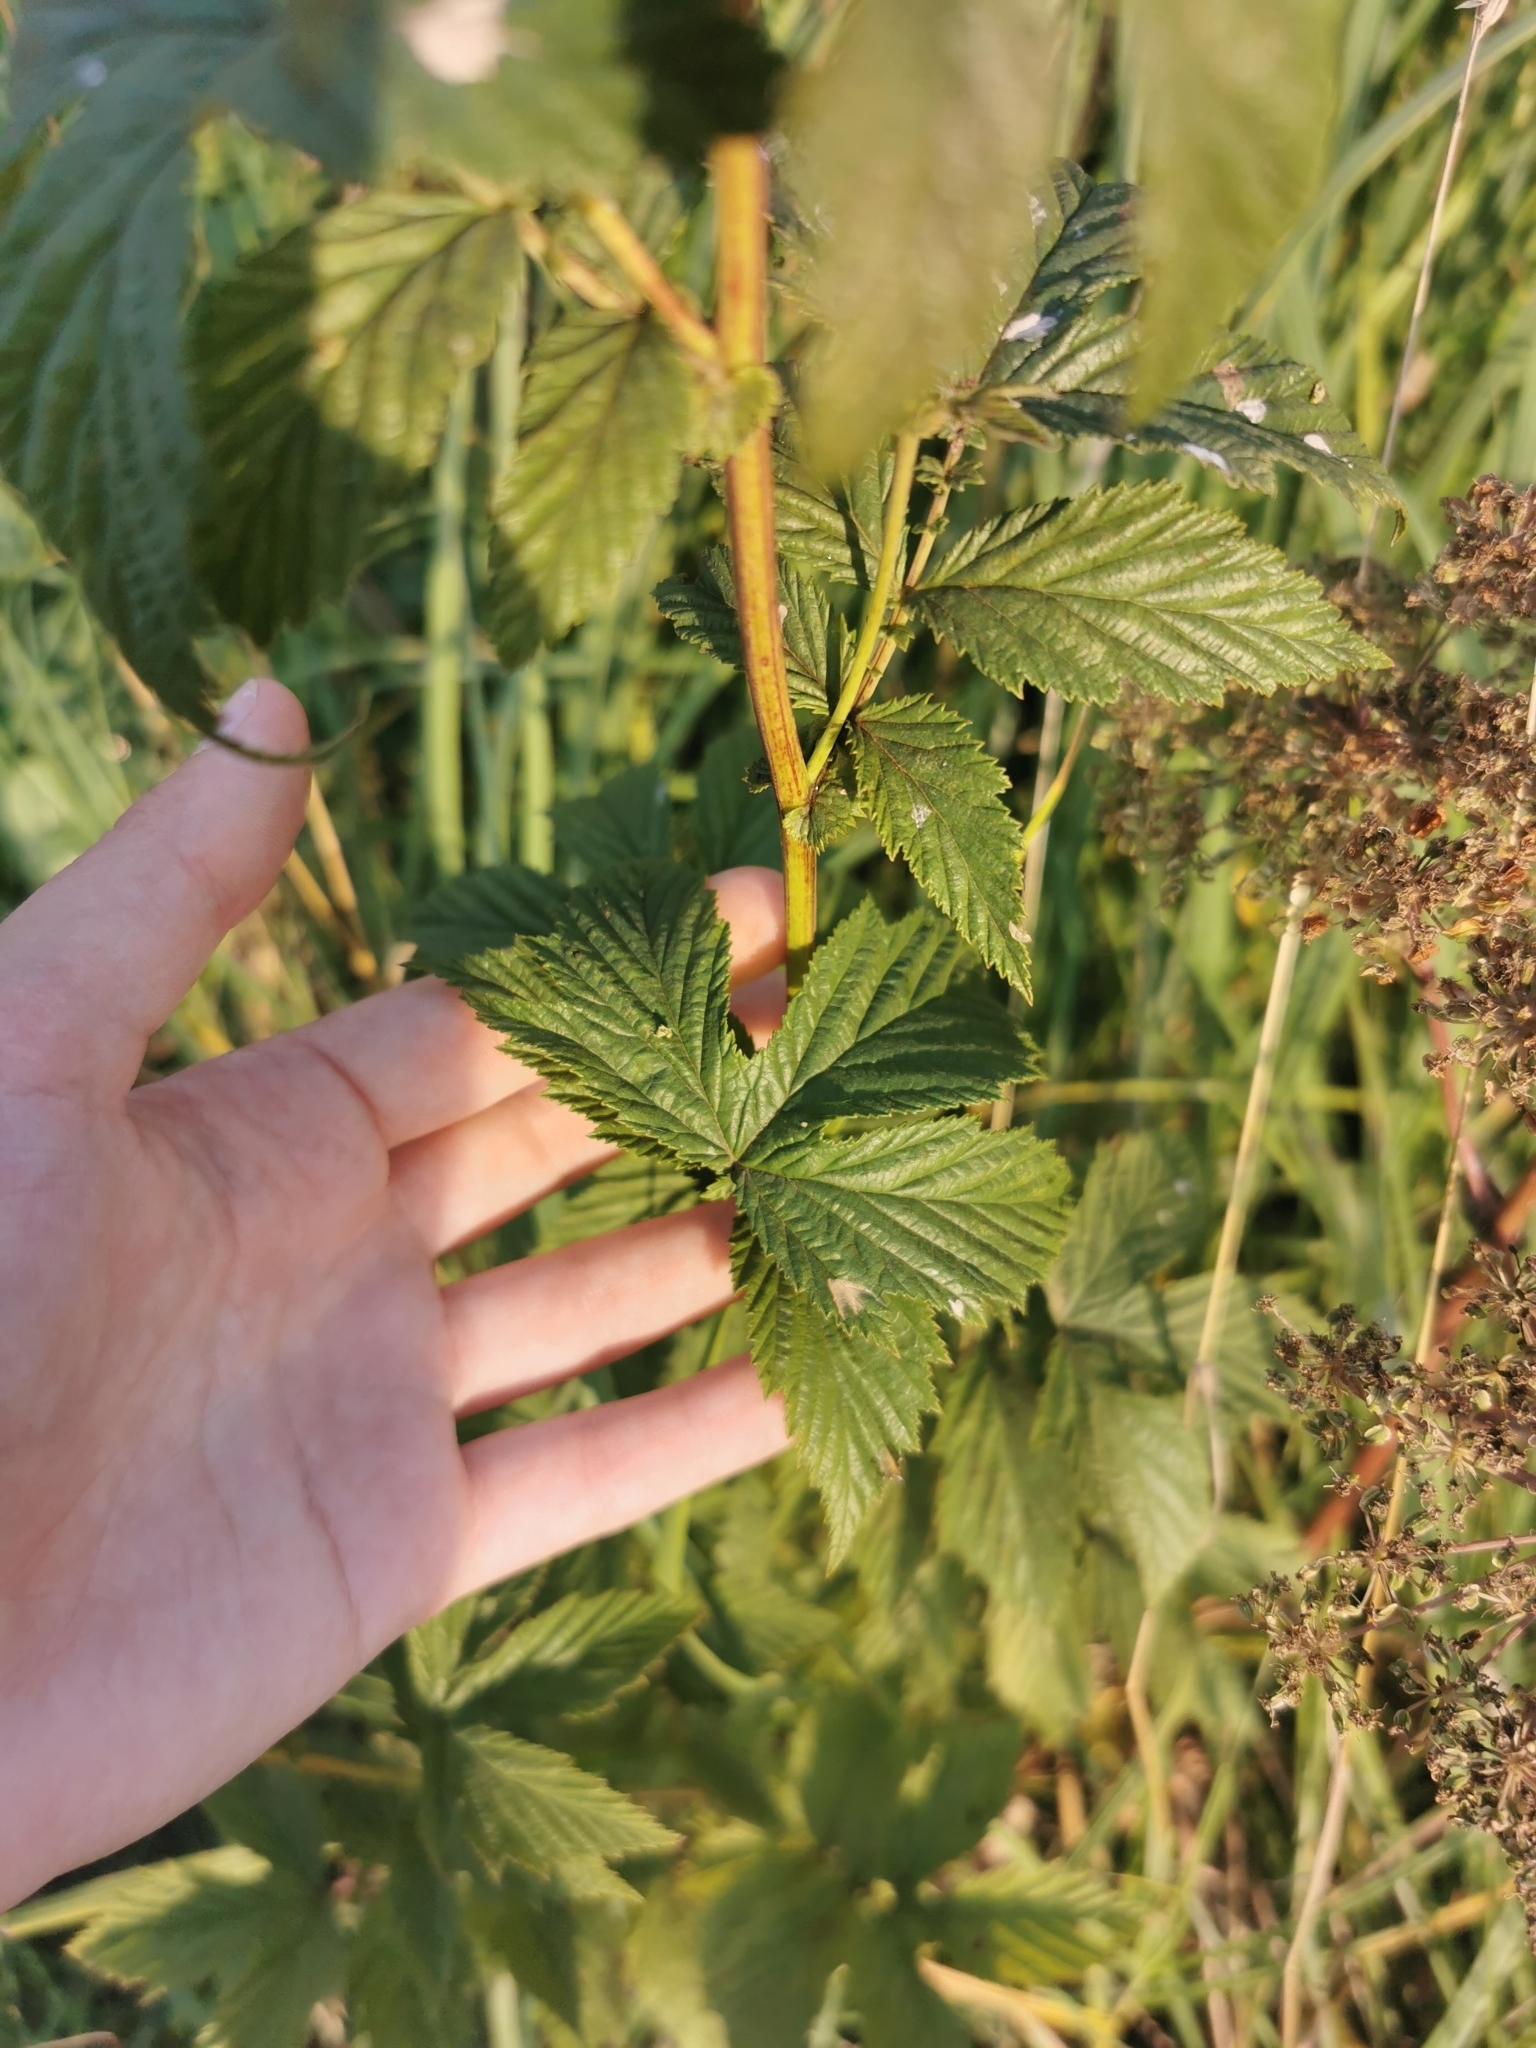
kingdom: Plantae
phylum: Tracheophyta
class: Magnoliopsida
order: Rosales
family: Rosaceae
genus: Filipendula
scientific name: Filipendula ulmaria
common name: Meadowsweet
